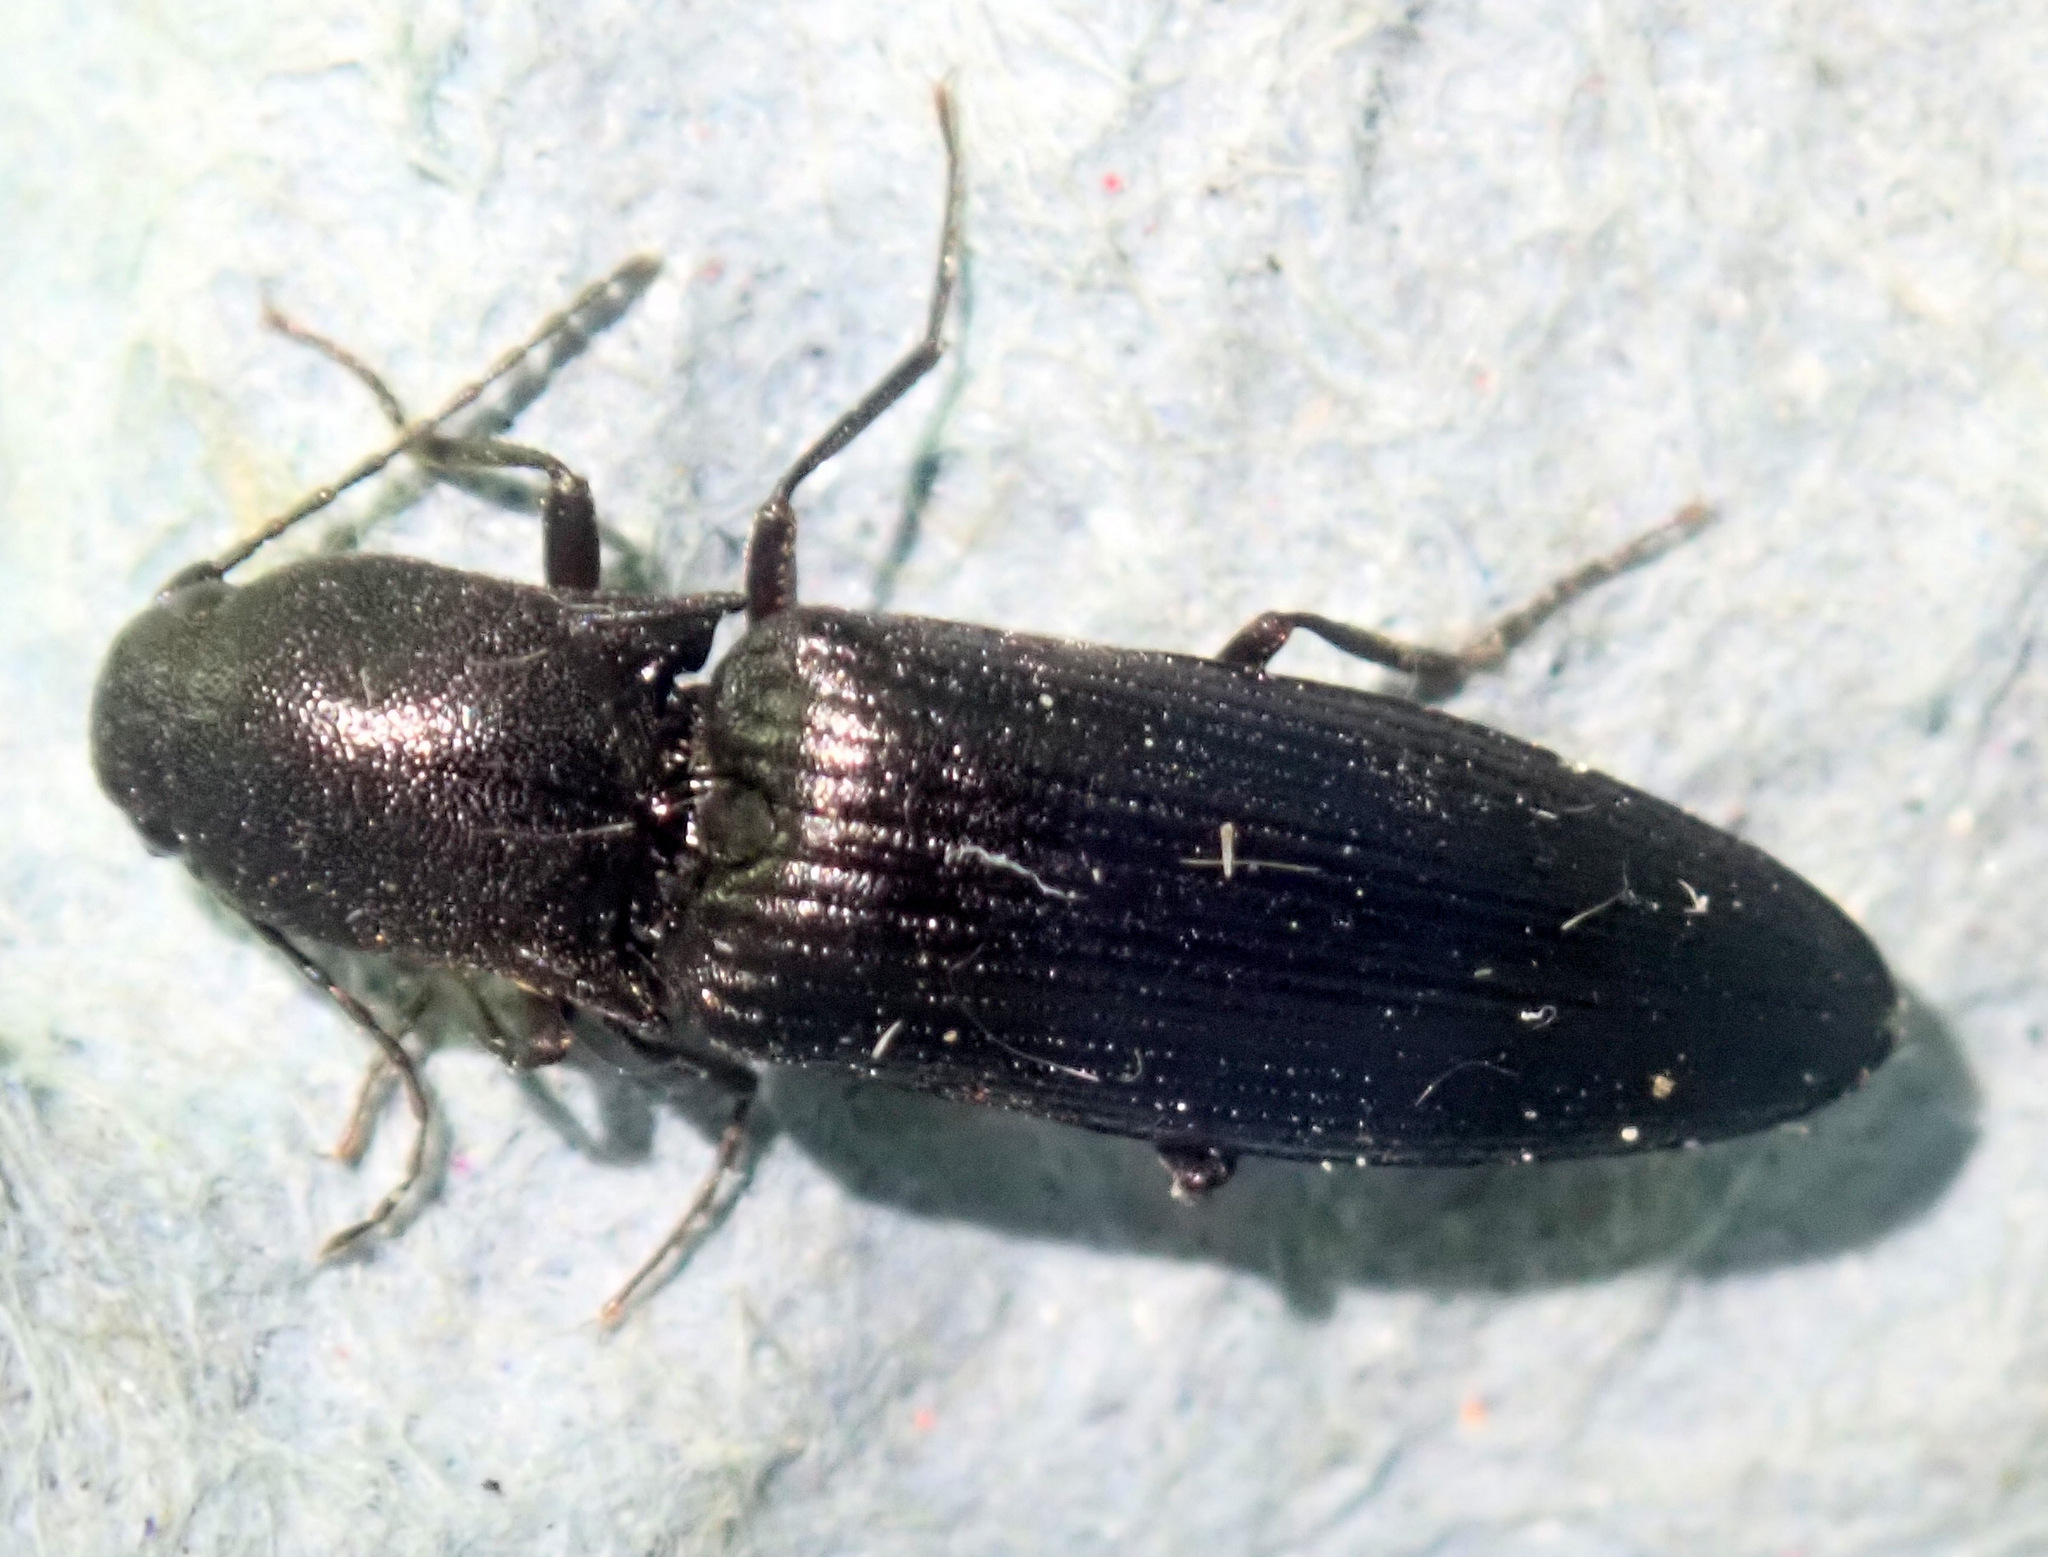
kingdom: Animalia
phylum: Arthropoda
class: Insecta
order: Coleoptera
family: Elateridae
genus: Ectinus
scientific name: Ectinus aterrimus
